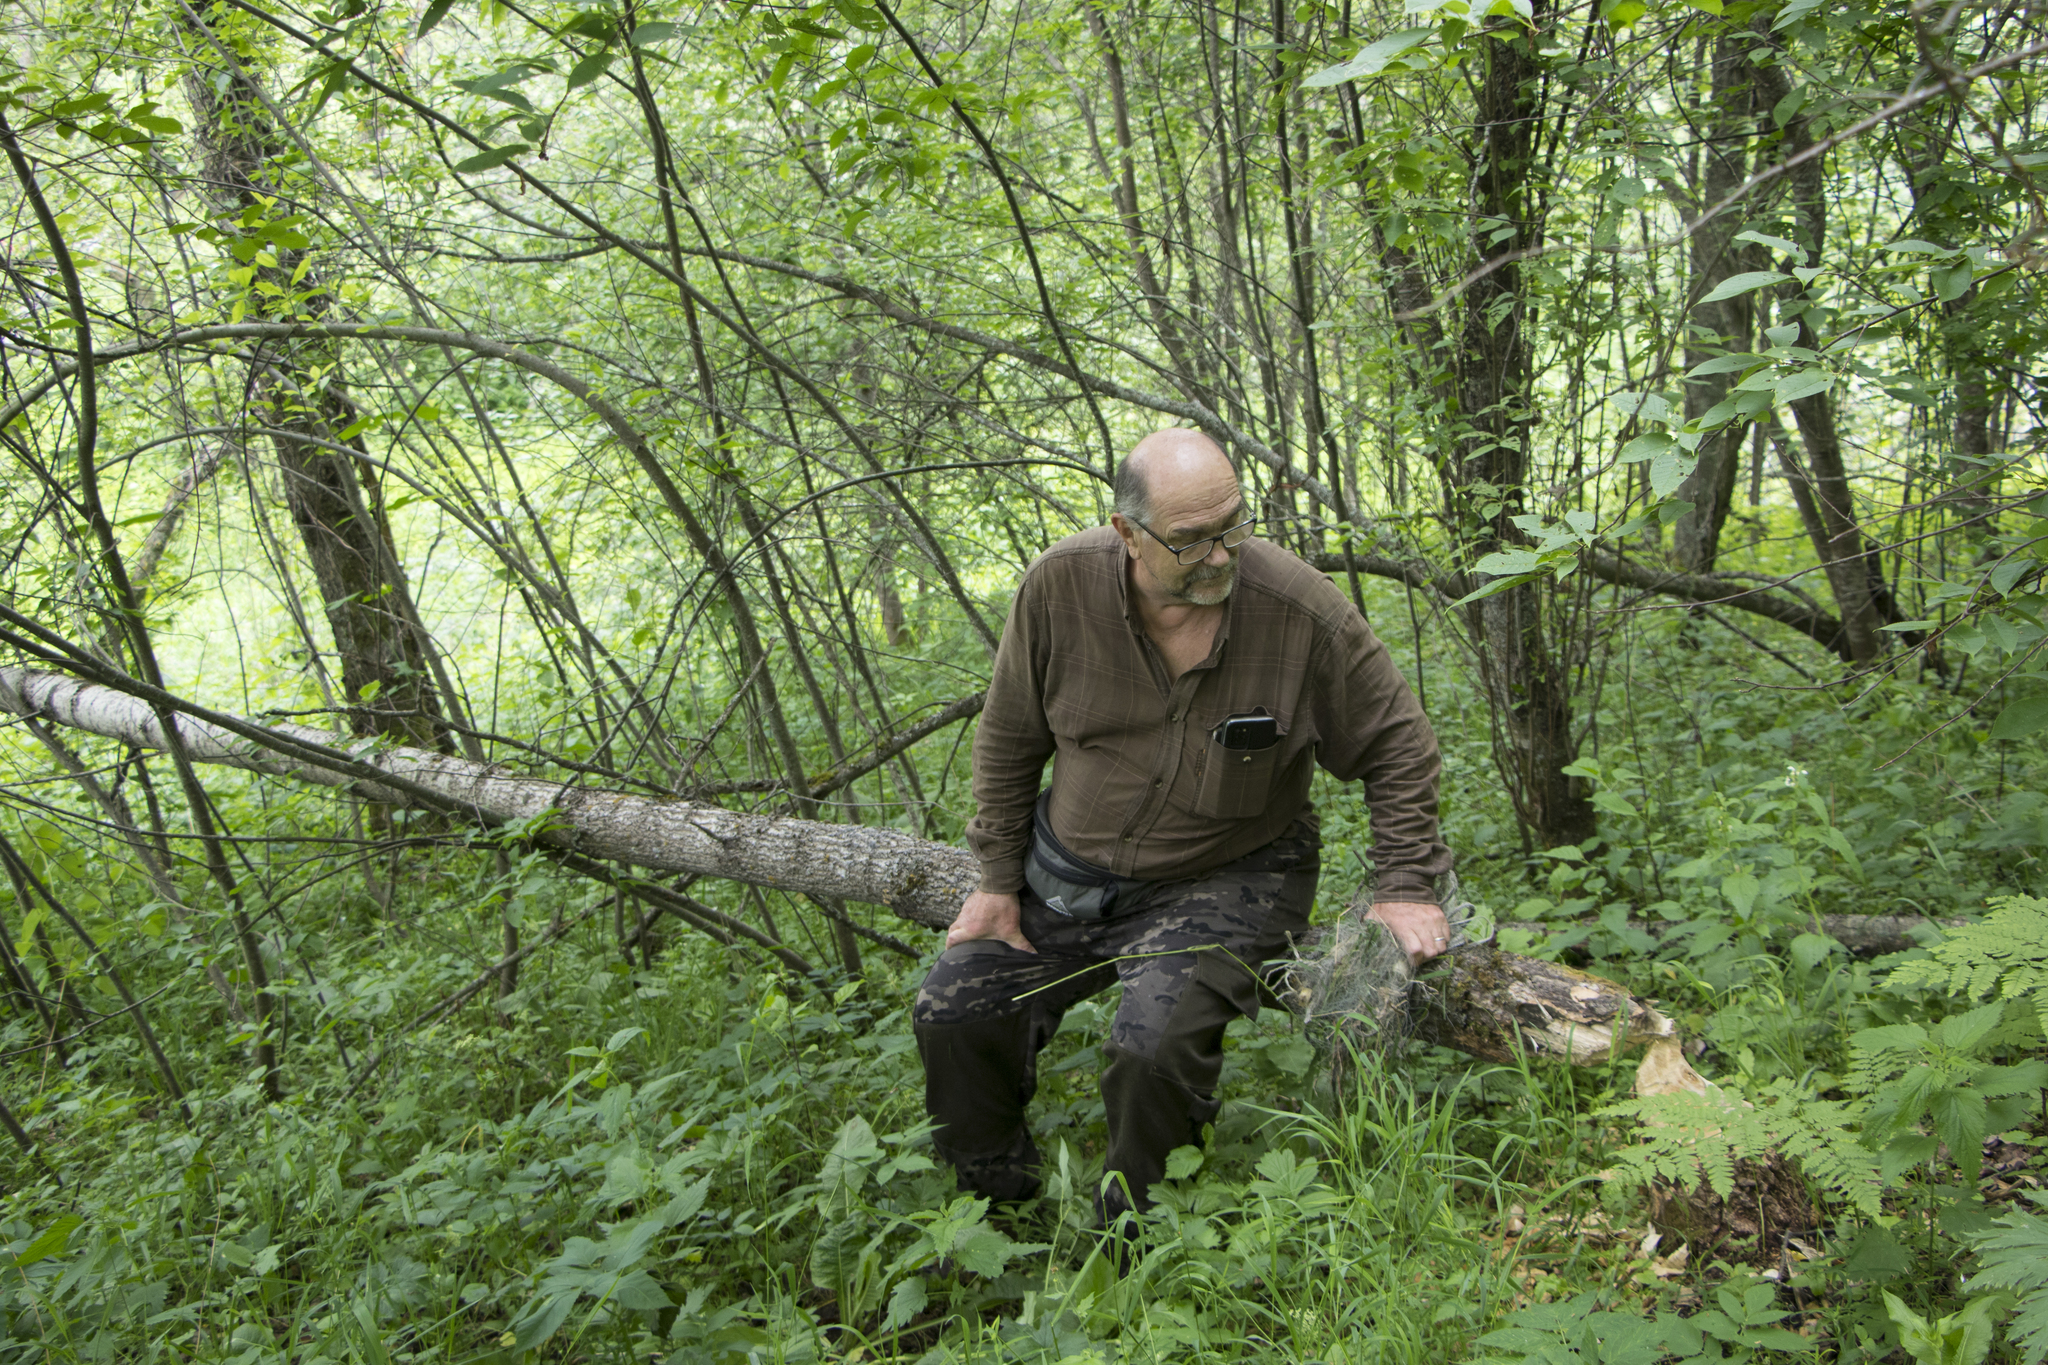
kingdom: Animalia
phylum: Chordata
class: Mammalia
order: Rodentia
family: Castoridae
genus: Castor
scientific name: Castor fiber
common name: Eurasian beaver
